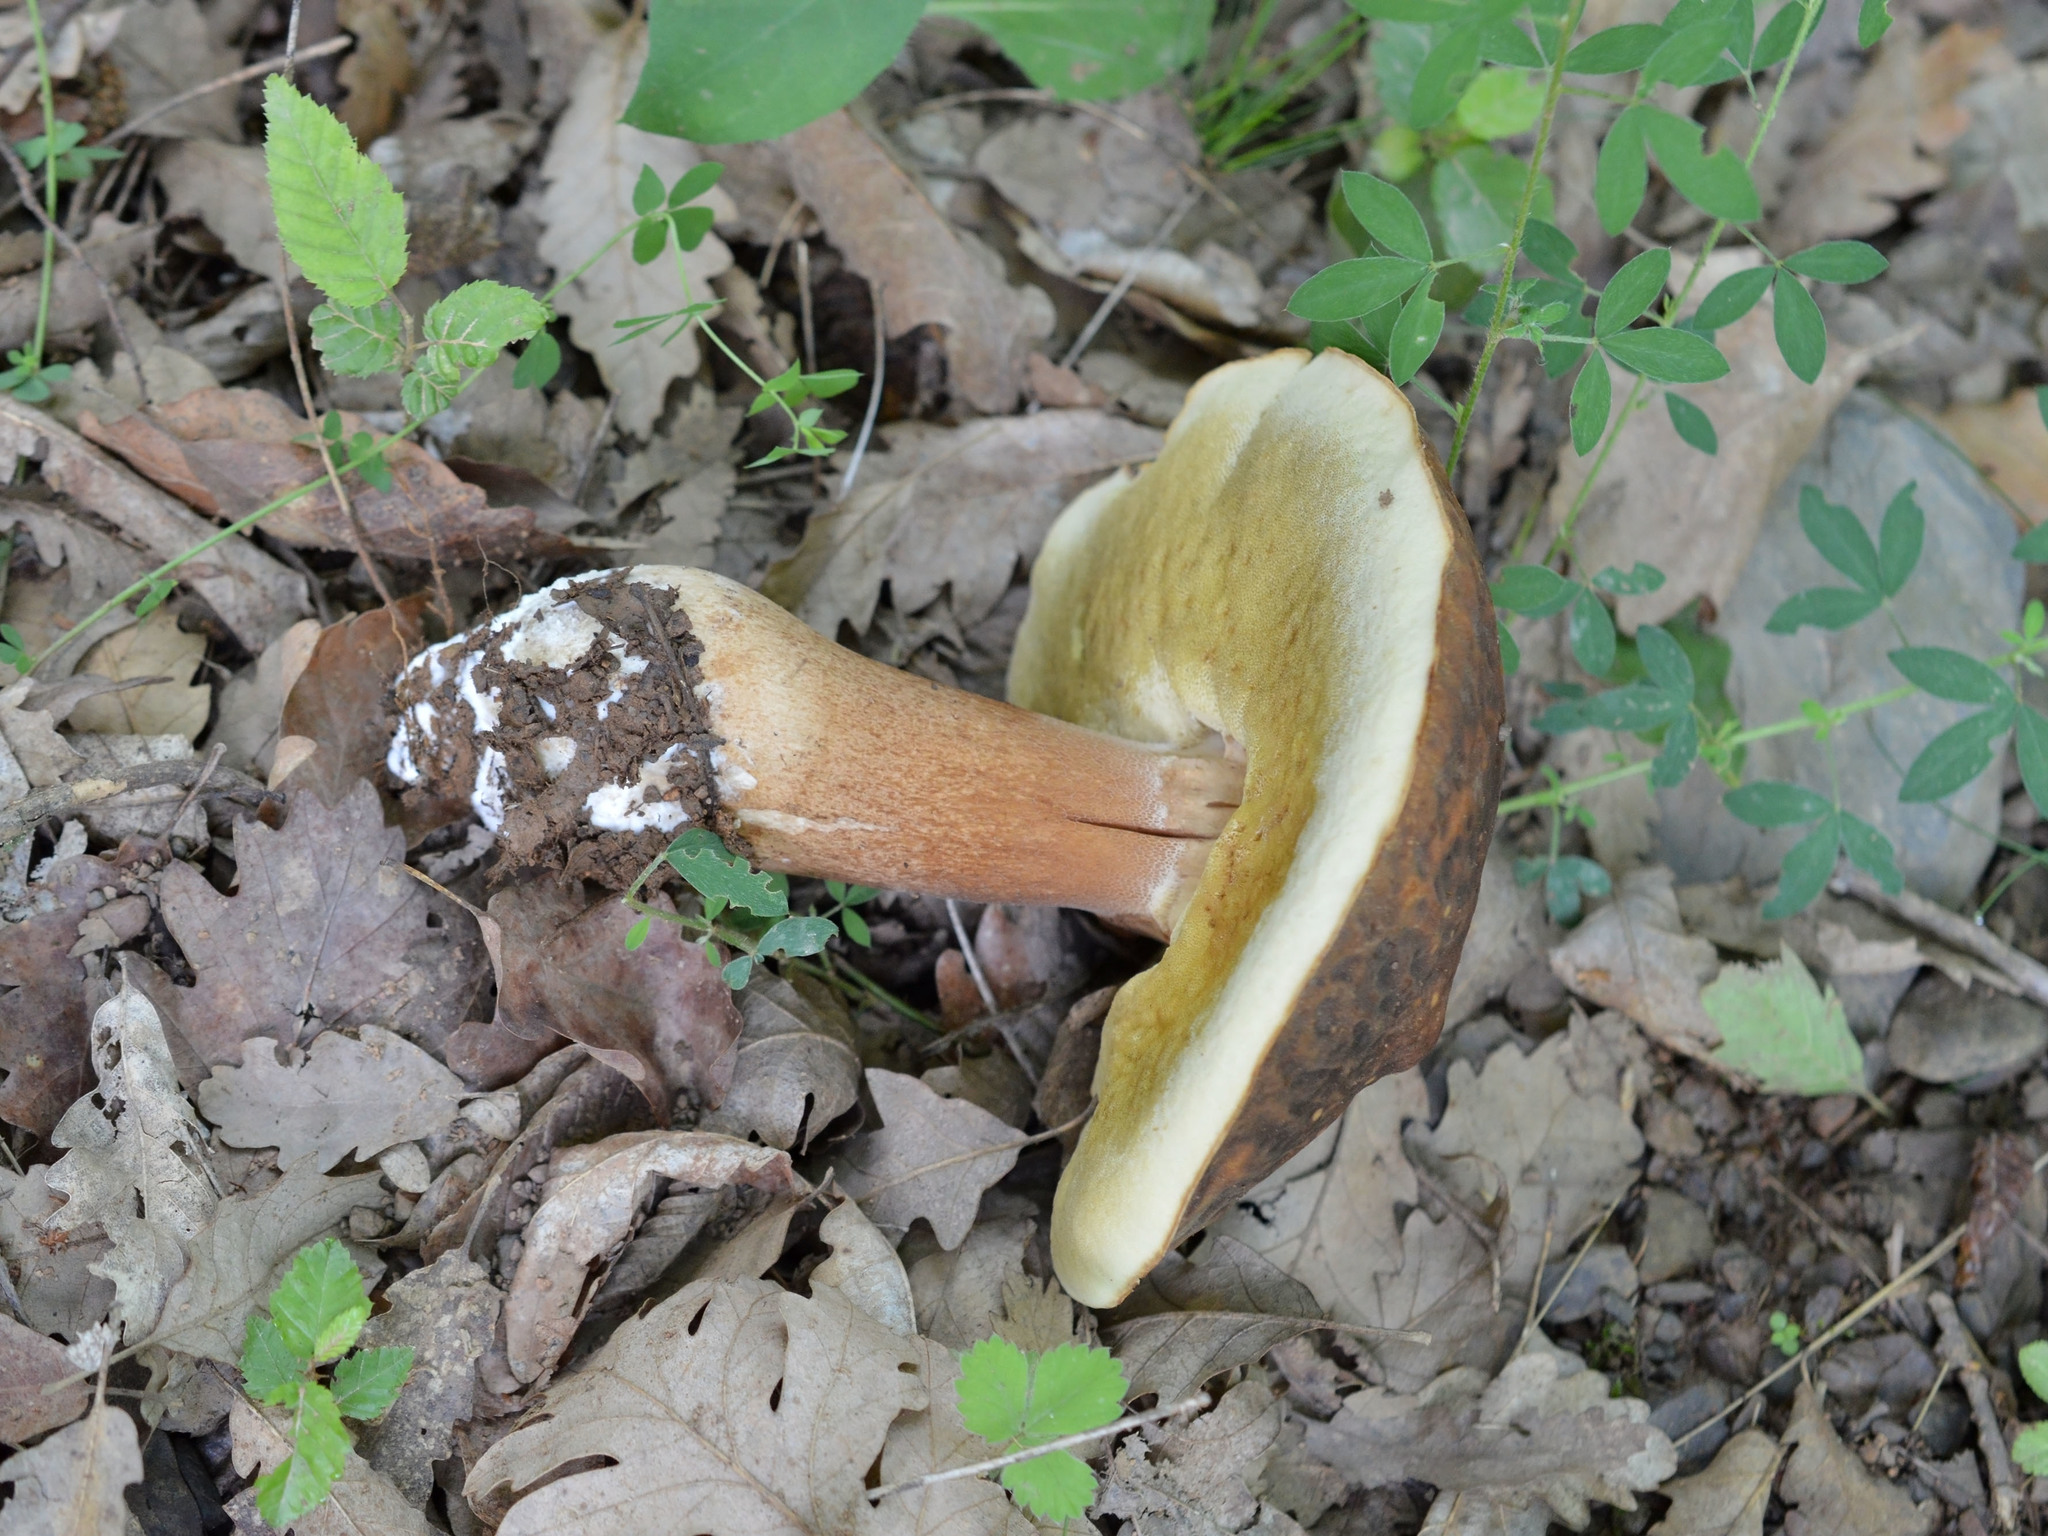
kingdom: Fungi
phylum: Basidiomycota
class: Agaricomycetes
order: Boletales
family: Boletaceae
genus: Boletus
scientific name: Boletus aereus
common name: Bronze bolete
